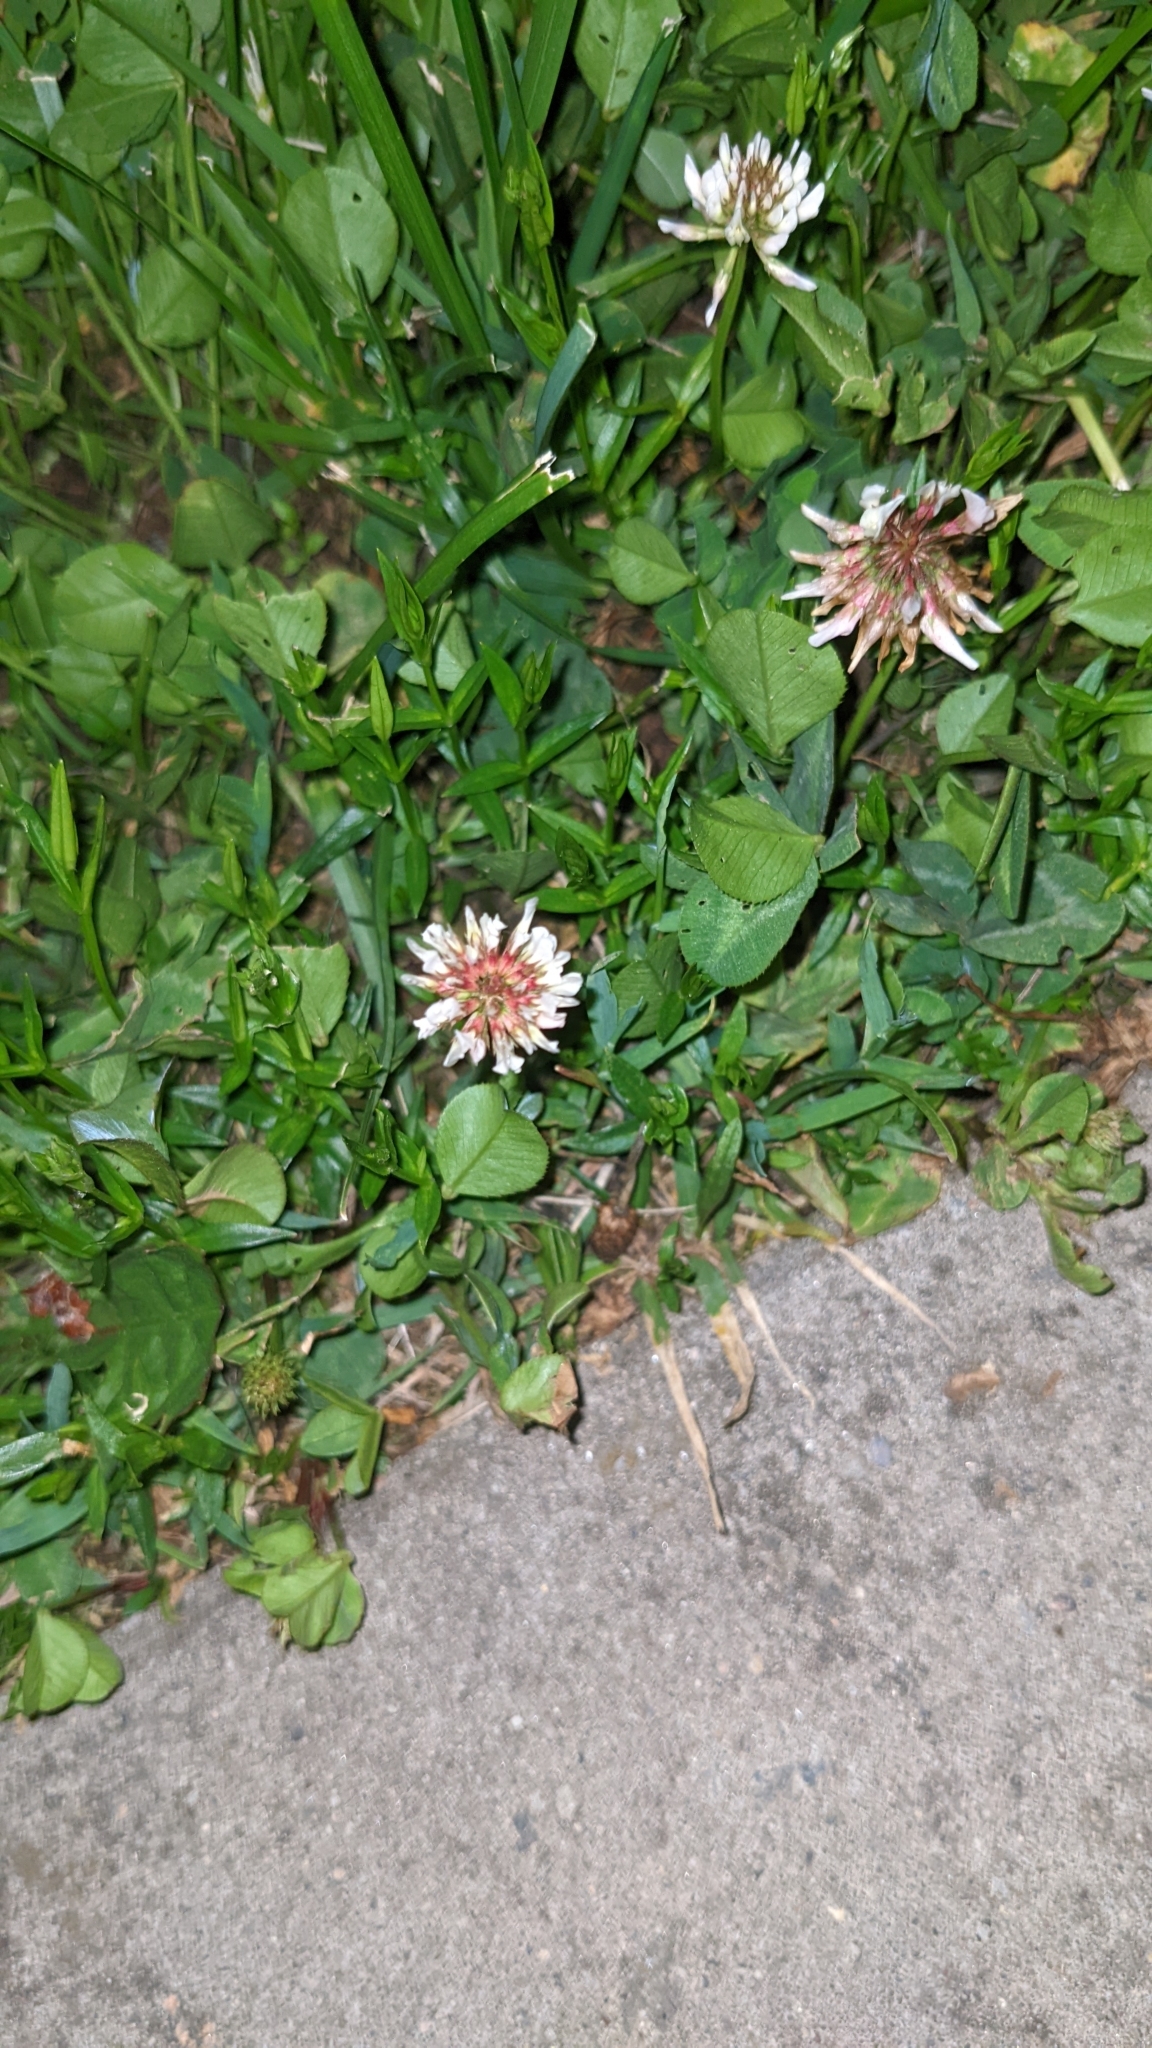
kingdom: Plantae
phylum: Tracheophyta
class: Magnoliopsida
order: Fabales
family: Fabaceae
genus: Trifolium
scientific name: Trifolium repens
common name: White clover
